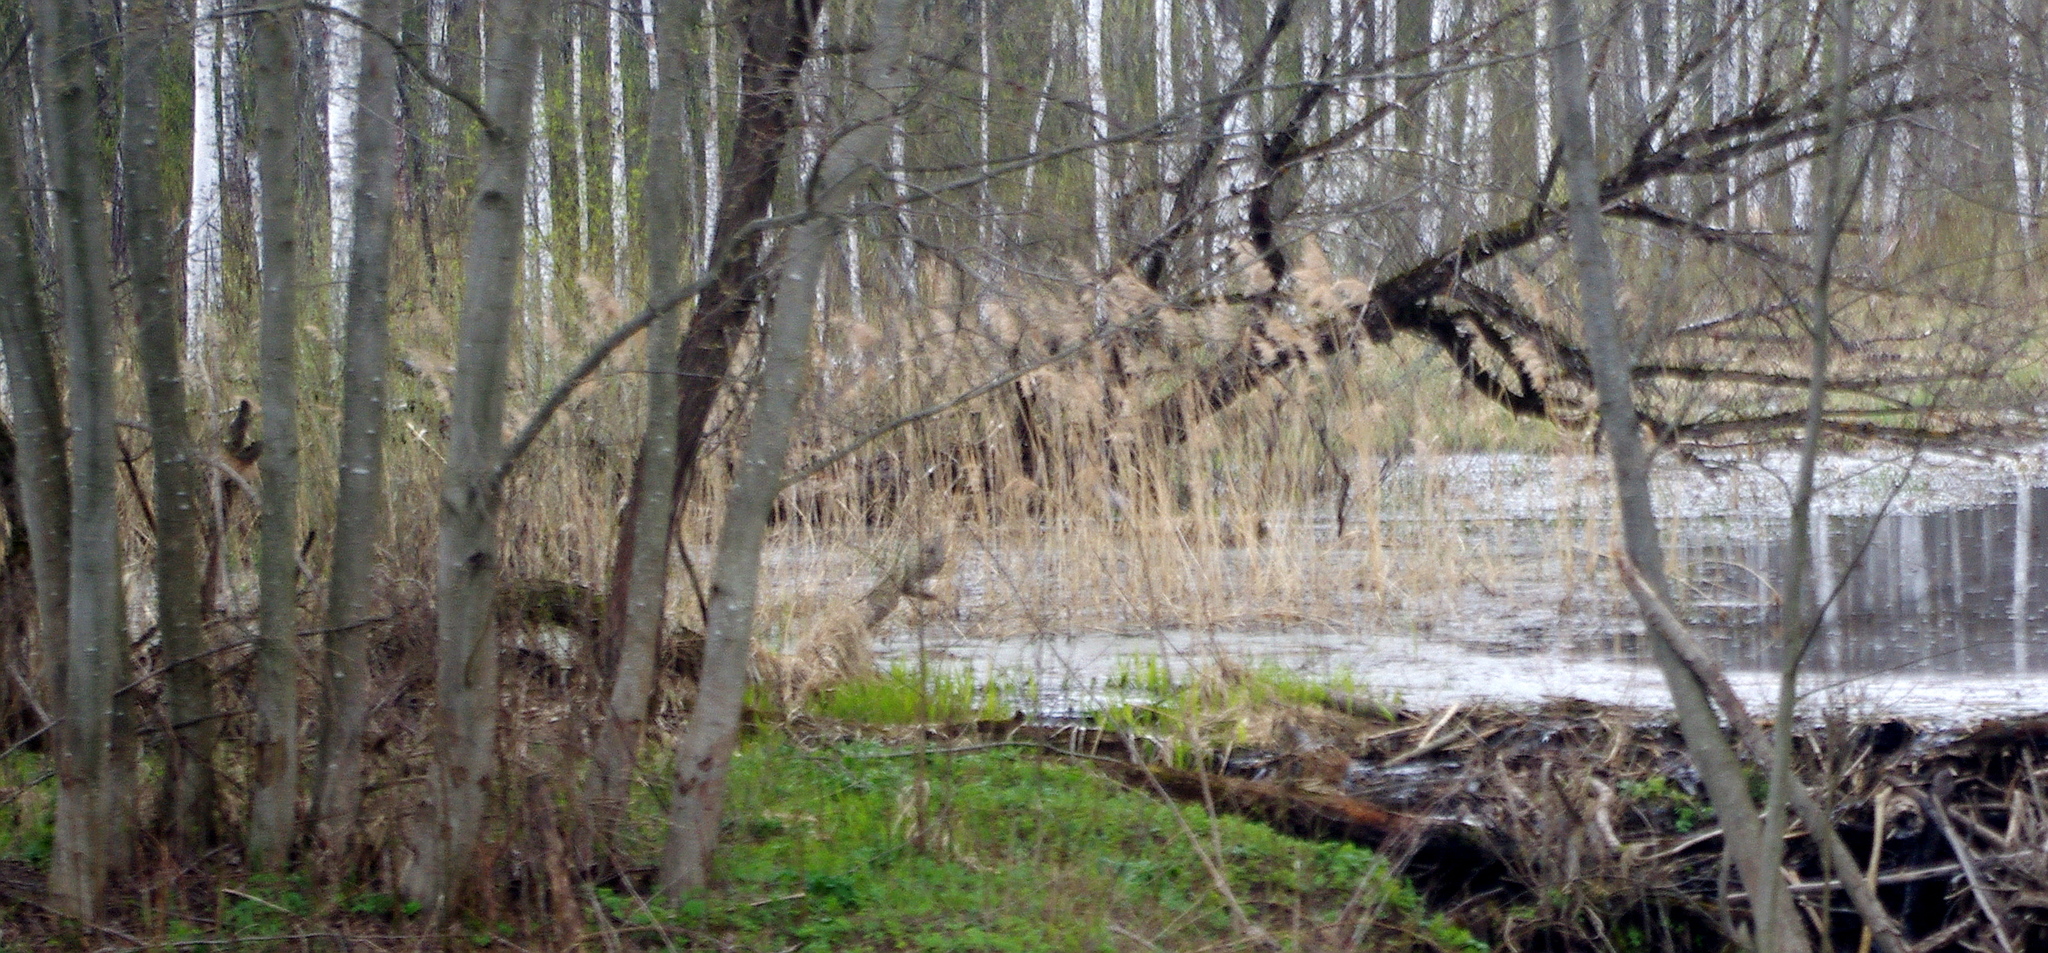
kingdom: Plantae
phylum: Tracheophyta
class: Liliopsida
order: Poales
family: Poaceae
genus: Phragmites
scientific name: Phragmites australis
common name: Common reed
